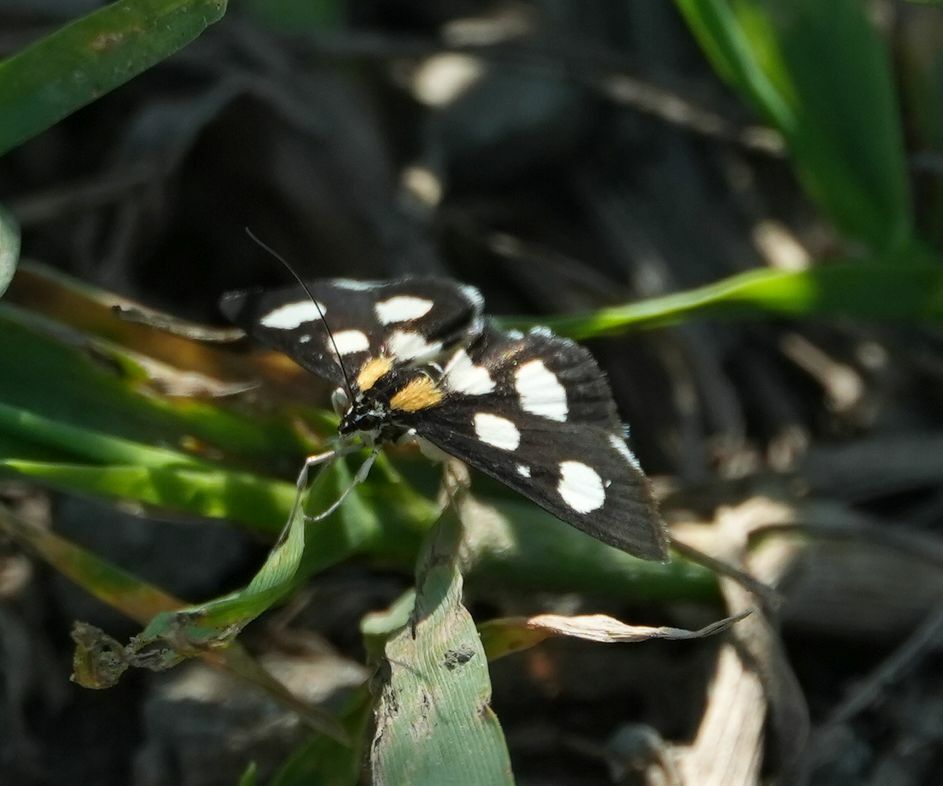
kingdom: Animalia
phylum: Arthropoda
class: Insecta
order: Lepidoptera
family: Crambidae
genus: Anania
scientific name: Anania funebris
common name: White-spotted sable moth
